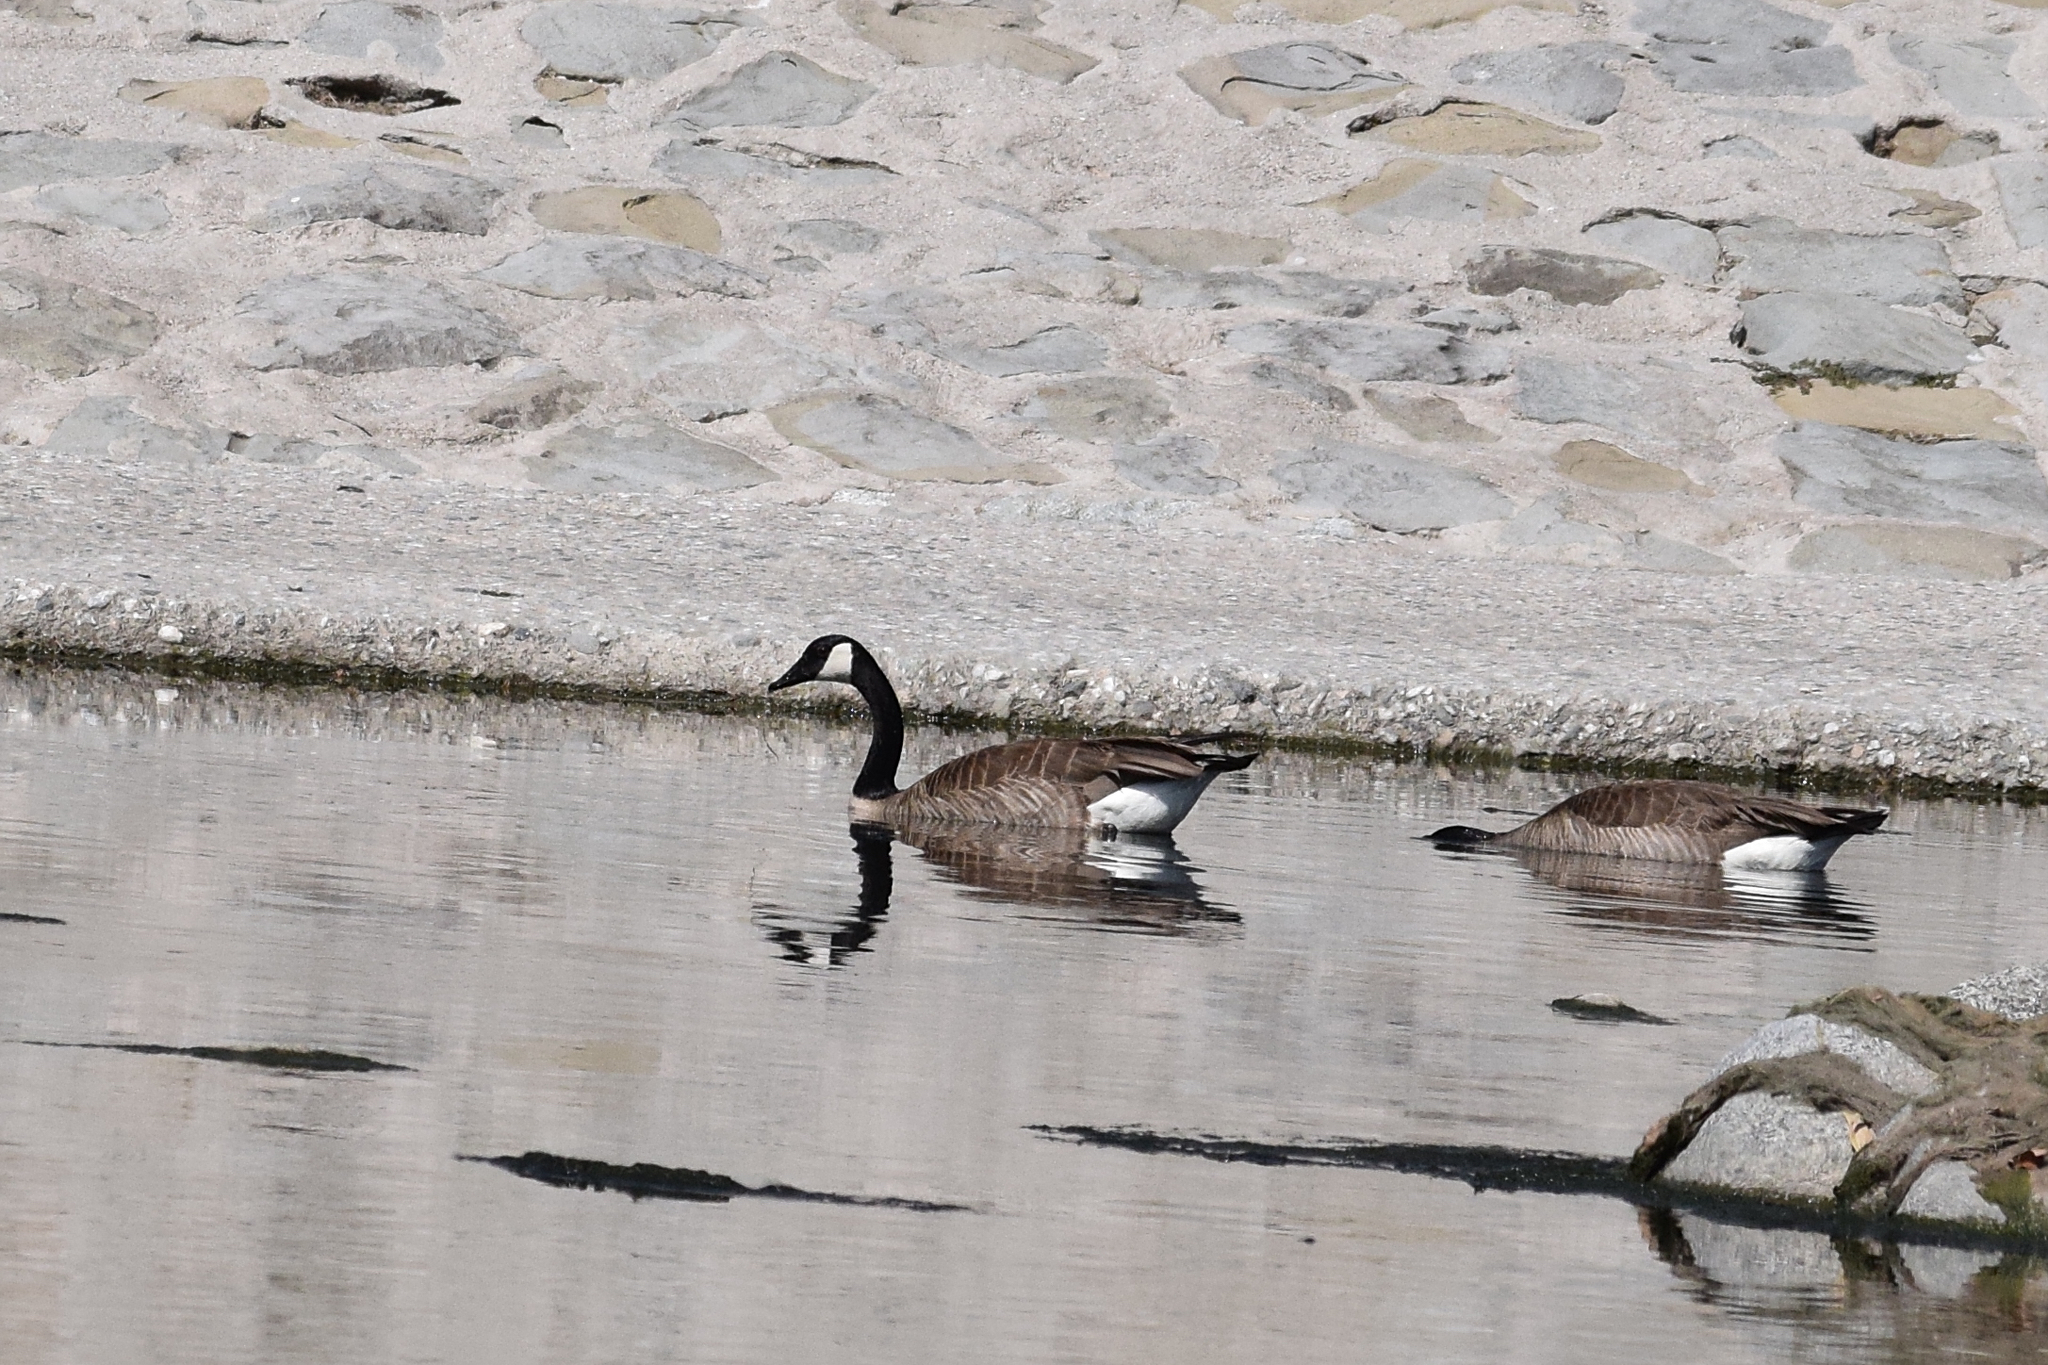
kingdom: Animalia
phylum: Chordata
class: Aves
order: Anseriformes
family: Anatidae
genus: Branta
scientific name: Branta canadensis
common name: Canada goose
